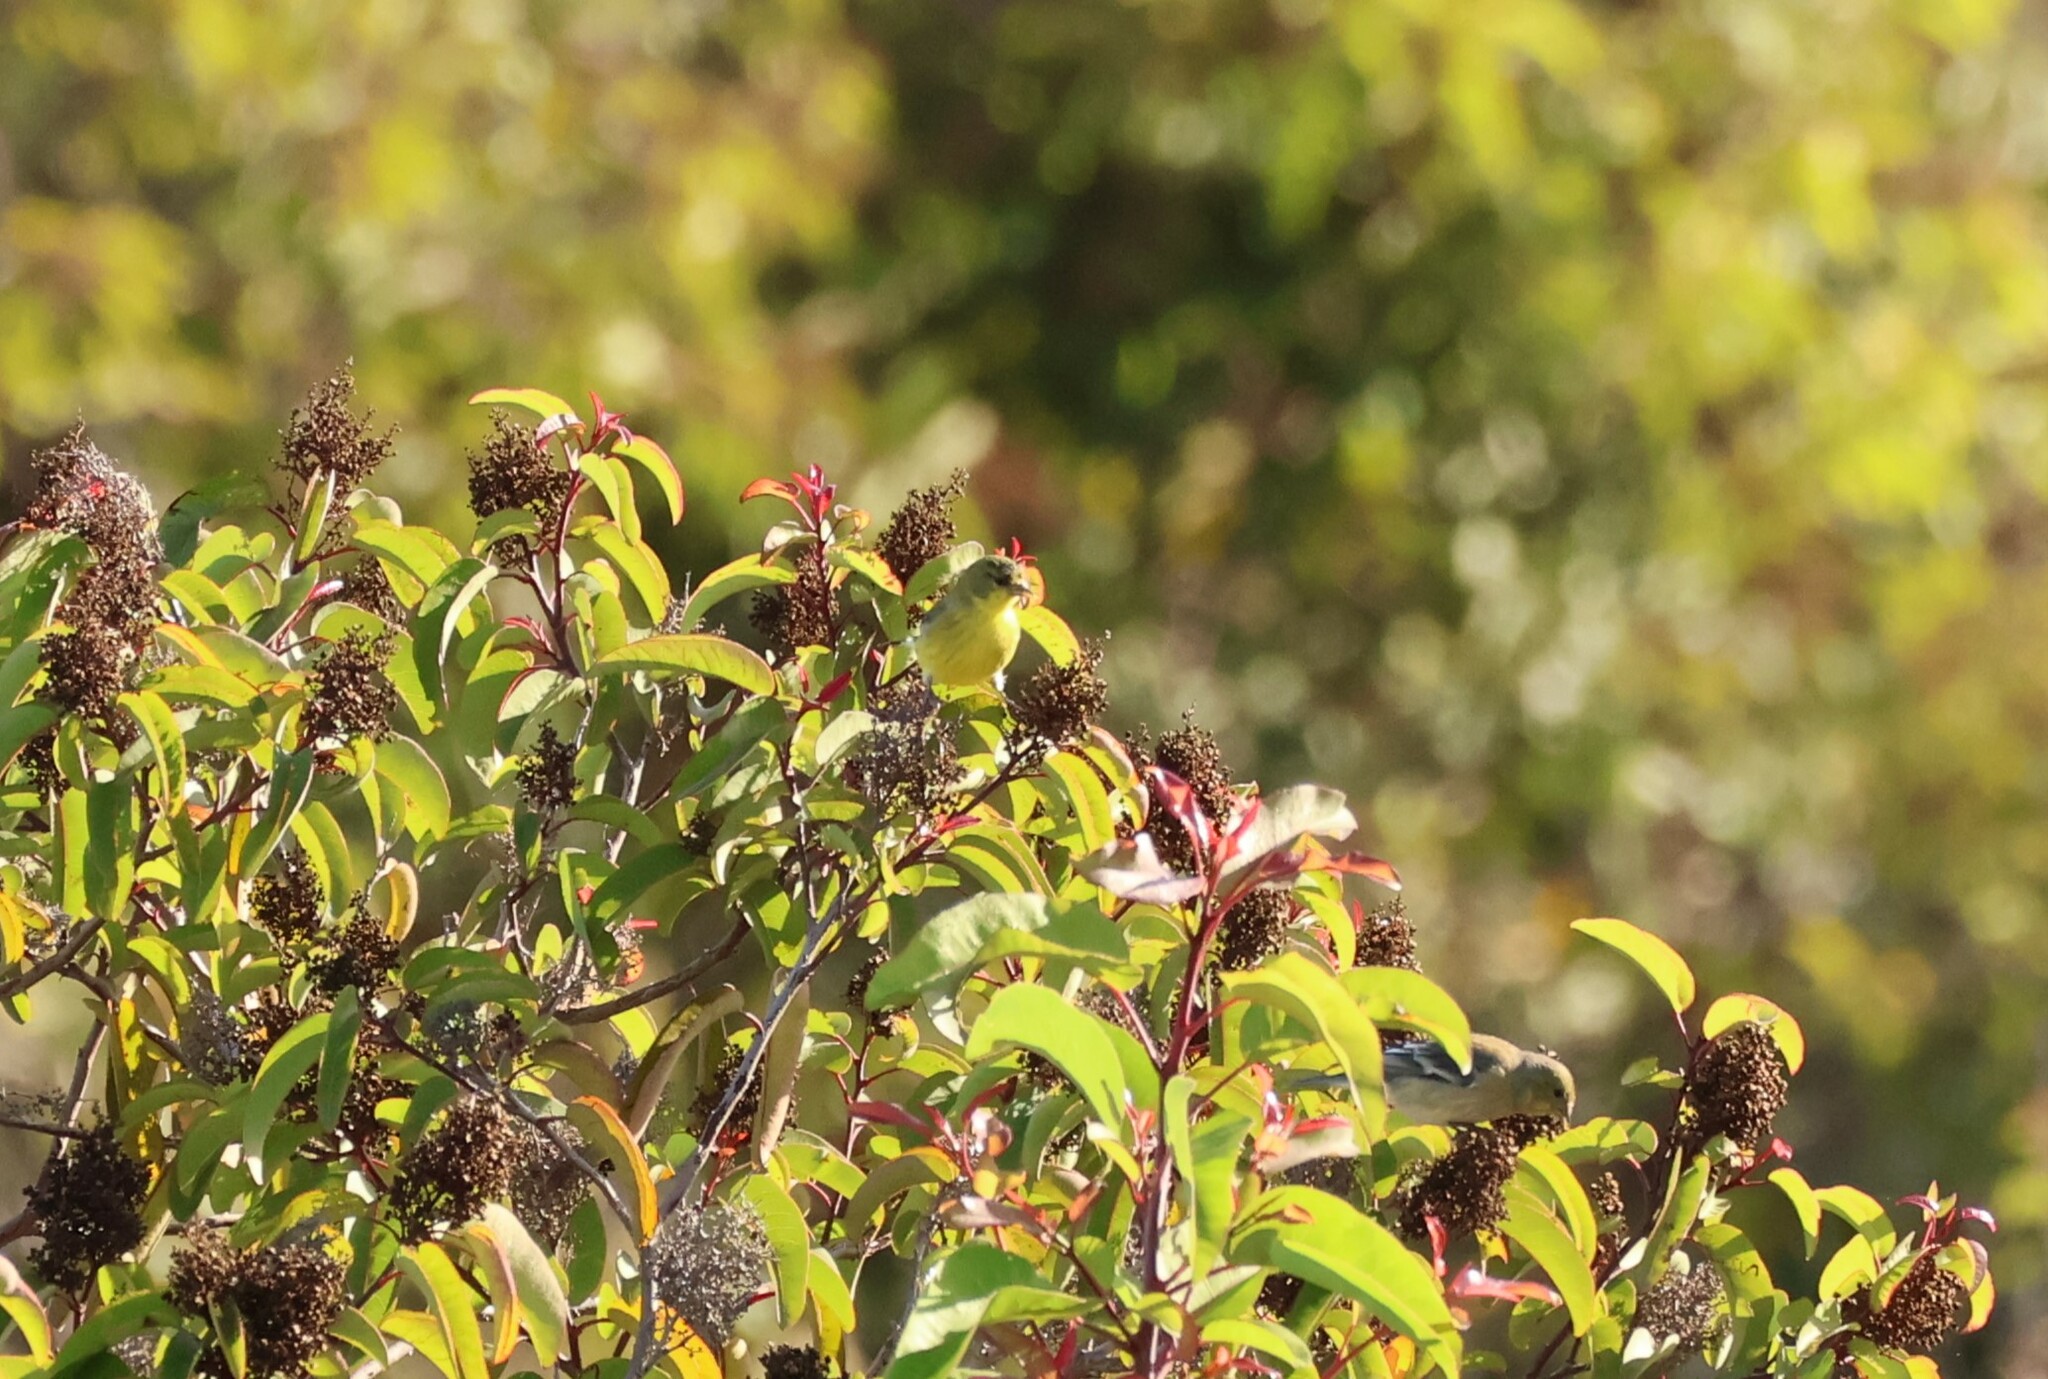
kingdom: Animalia
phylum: Chordata
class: Aves
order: Passeriformes
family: Fringillidae
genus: Spinus
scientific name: Spinus psaltria
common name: Lesser goldfinch
